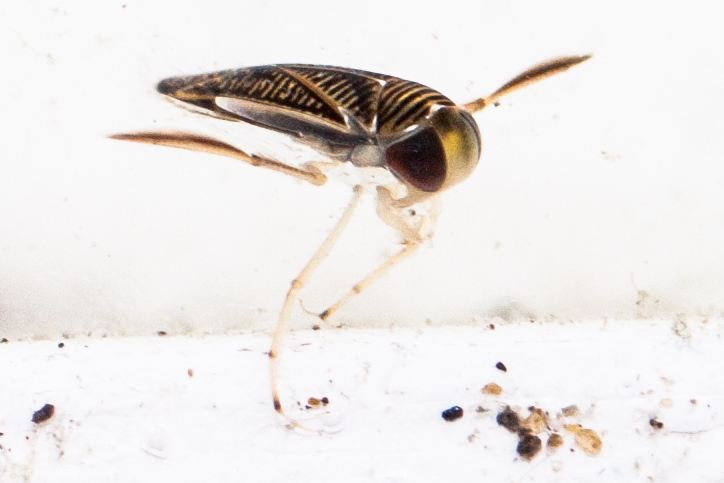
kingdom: Animalia
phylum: Arthropoda
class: Insecta
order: Hemiptera
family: Corixidae
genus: Vermicorixa
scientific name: Vermicorixa
